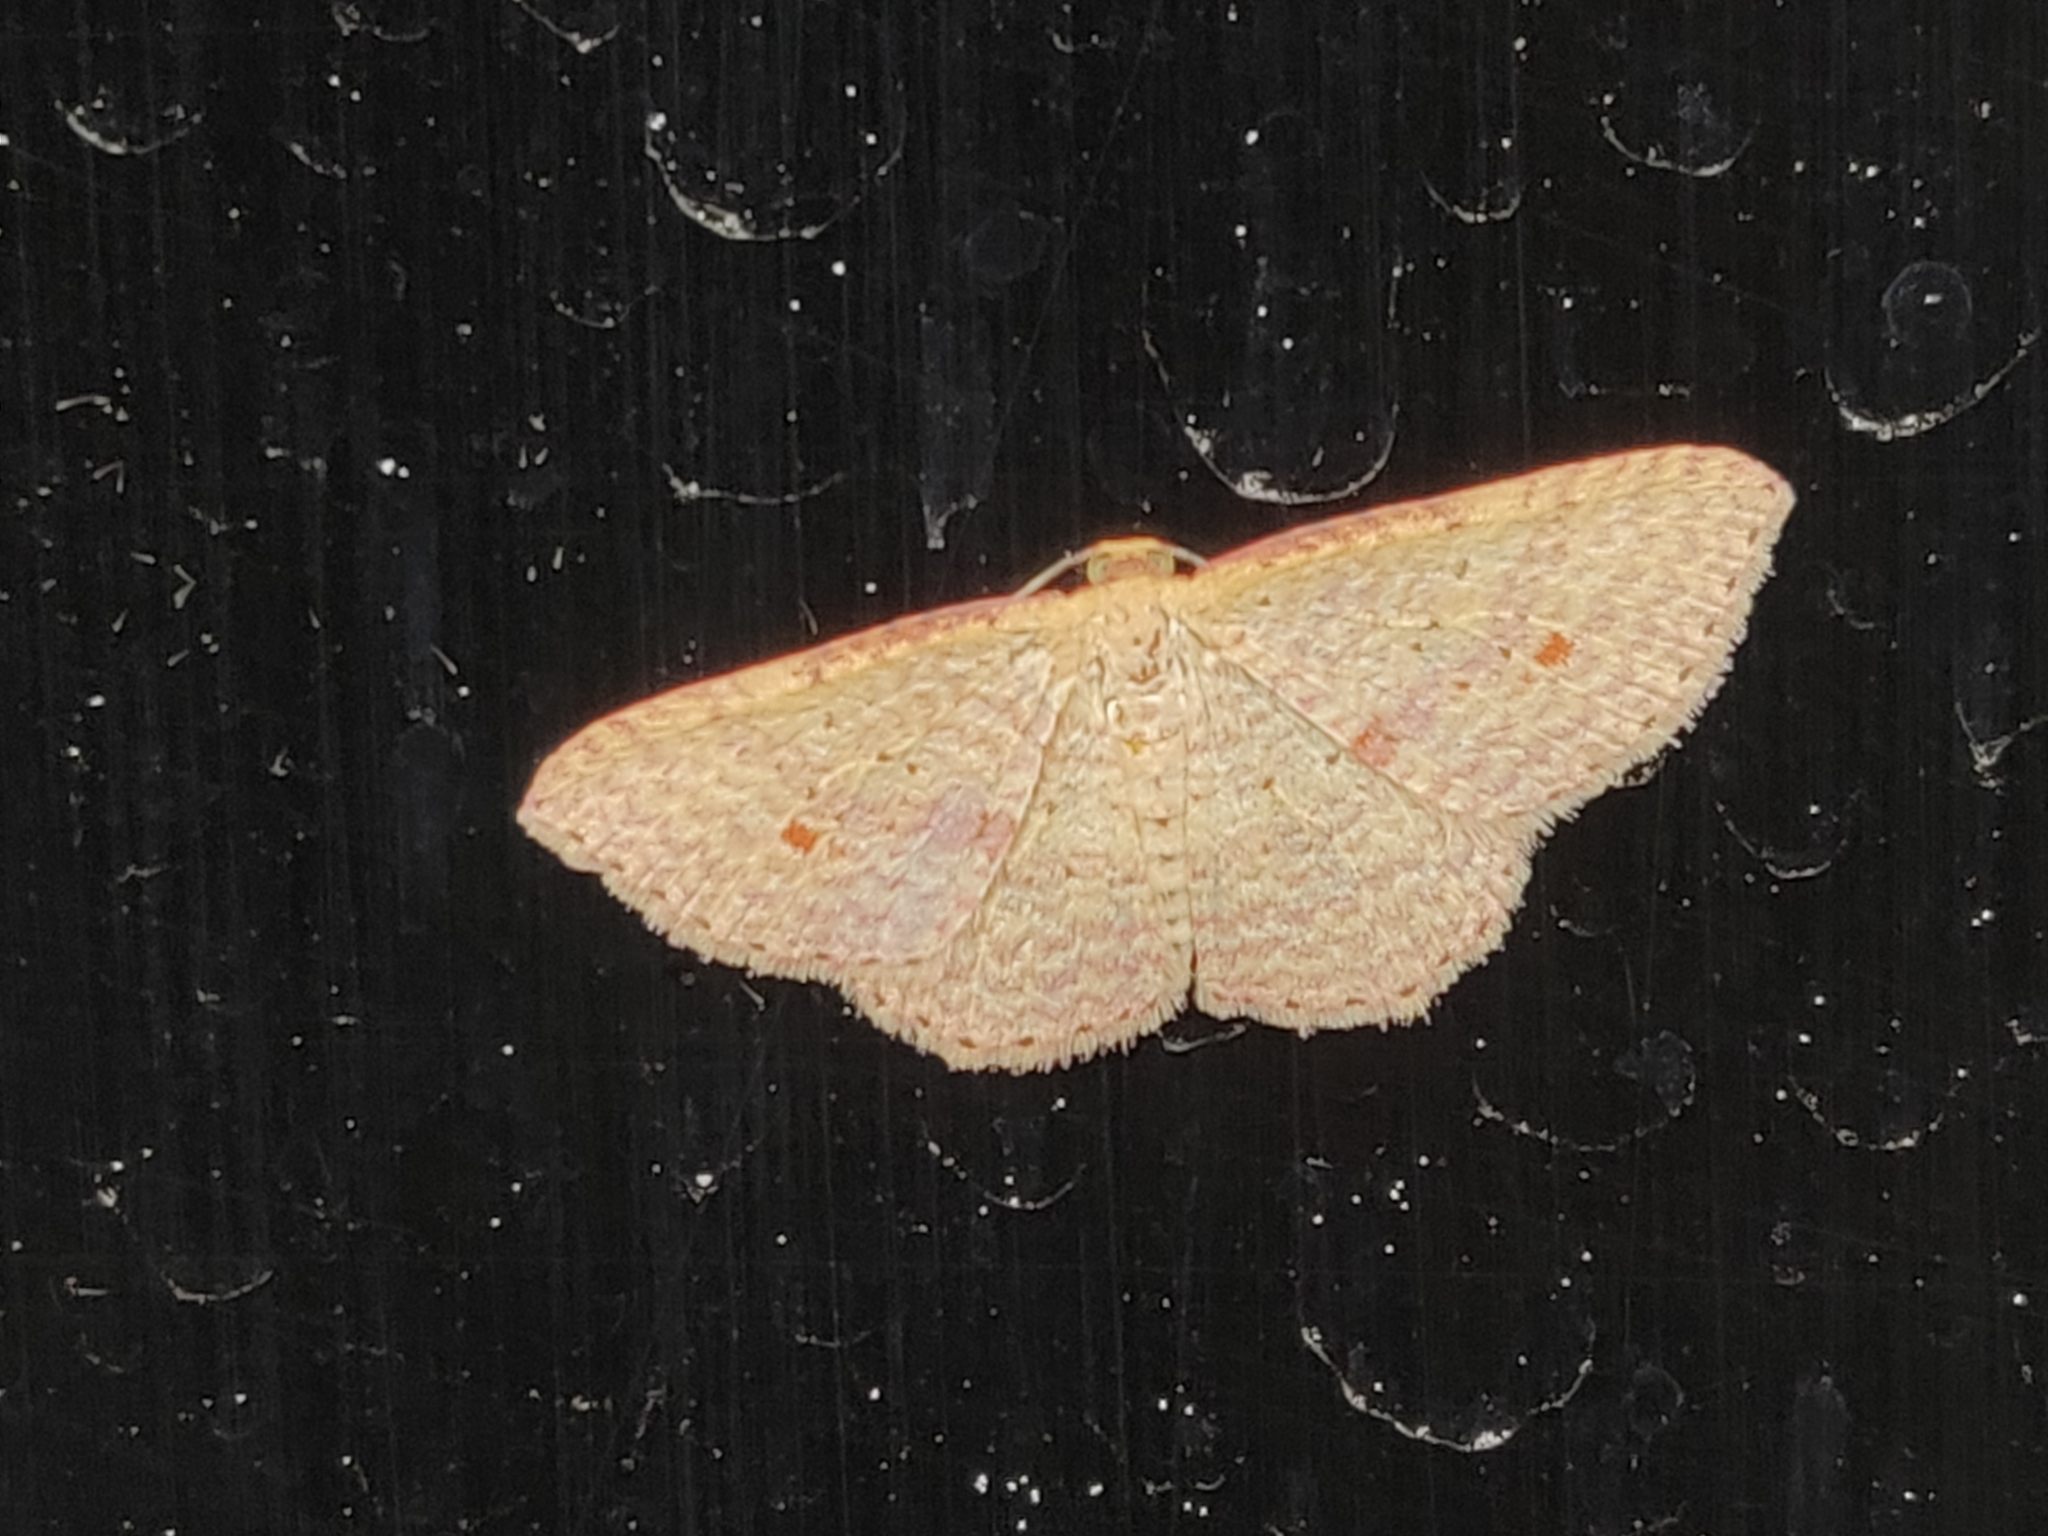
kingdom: Animalia
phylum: Arthropoda
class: Insecta
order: Lepidoptera
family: Geometridae
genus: Epicyme
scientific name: Epicyme rubropunctaria
